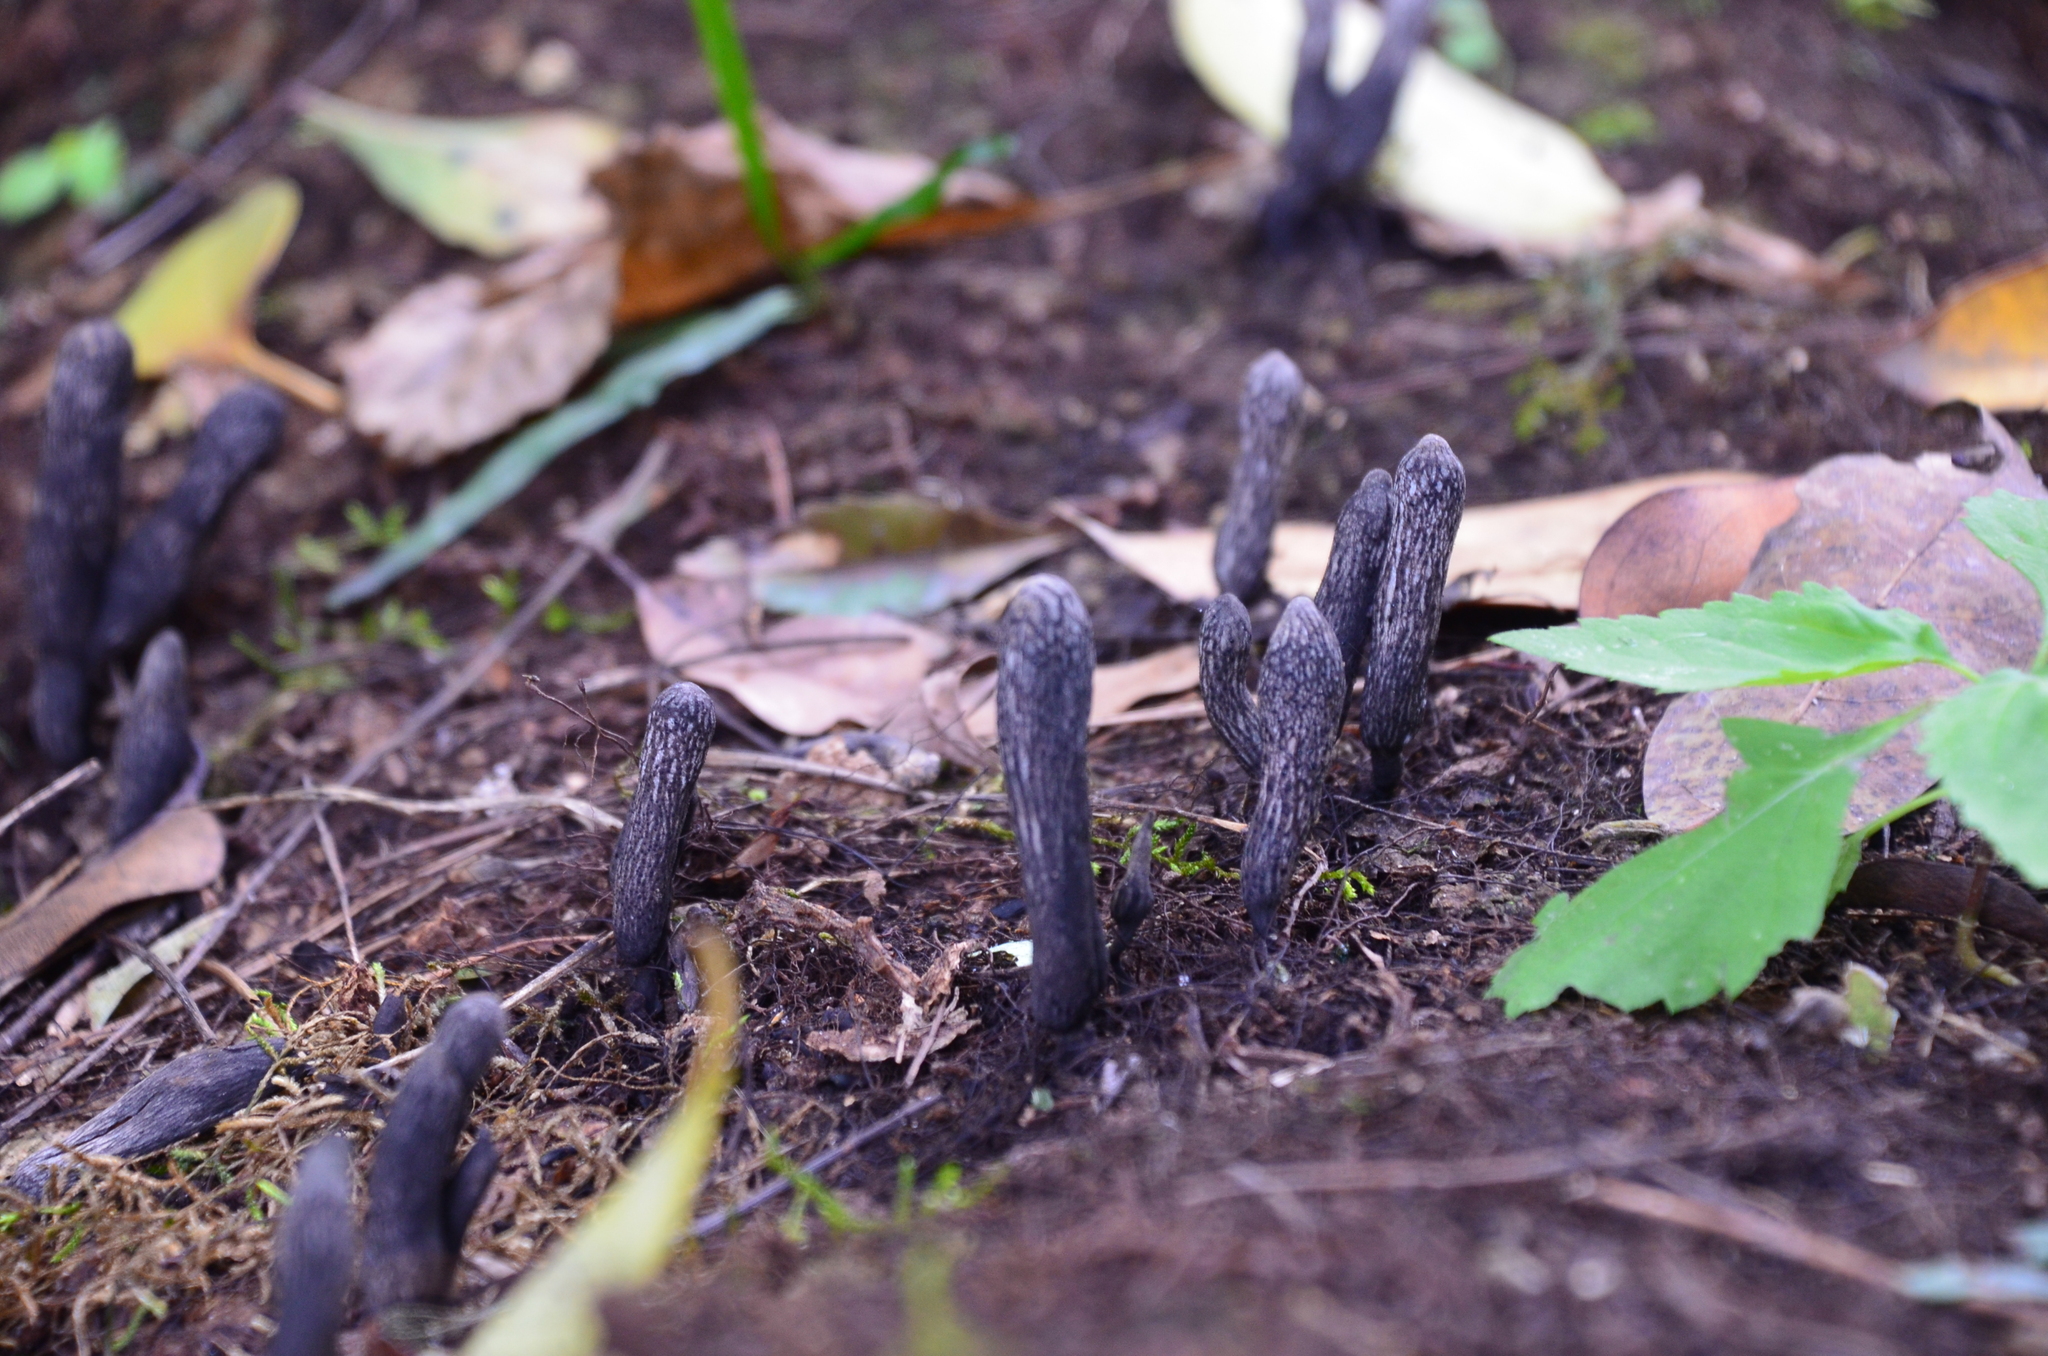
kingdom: Fungi
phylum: Ascomycota
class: Sordariomycetes
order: Xylariales
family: Xylariaceae
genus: Xylaria
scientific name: Xylaria polymorpha
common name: Dead man's fingers
